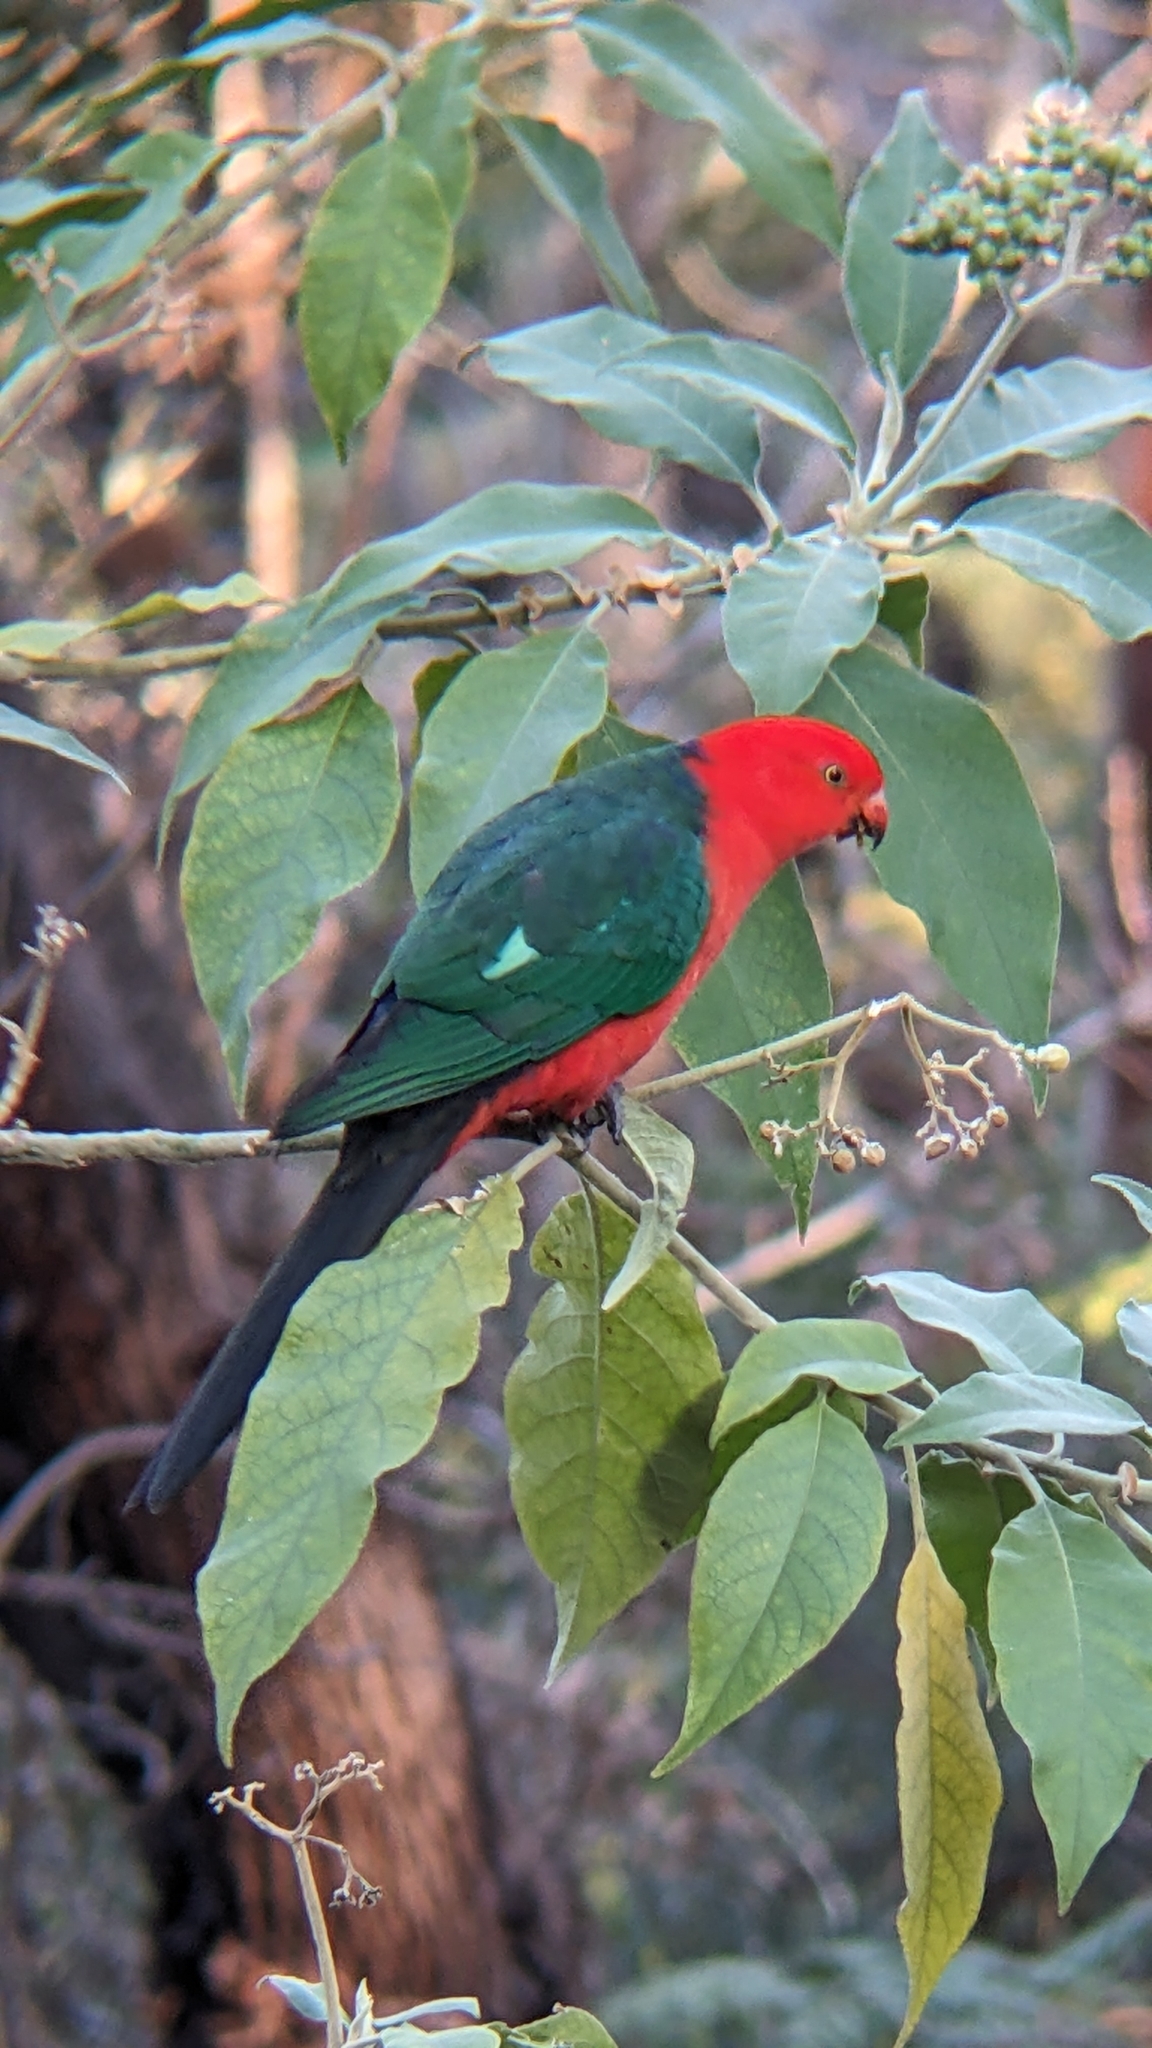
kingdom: Animalia
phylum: Chordata
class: Aves
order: Psittaciformes
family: Psittacidae
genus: Alisterus
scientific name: Alisterus scapularis
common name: Australian king parrot
